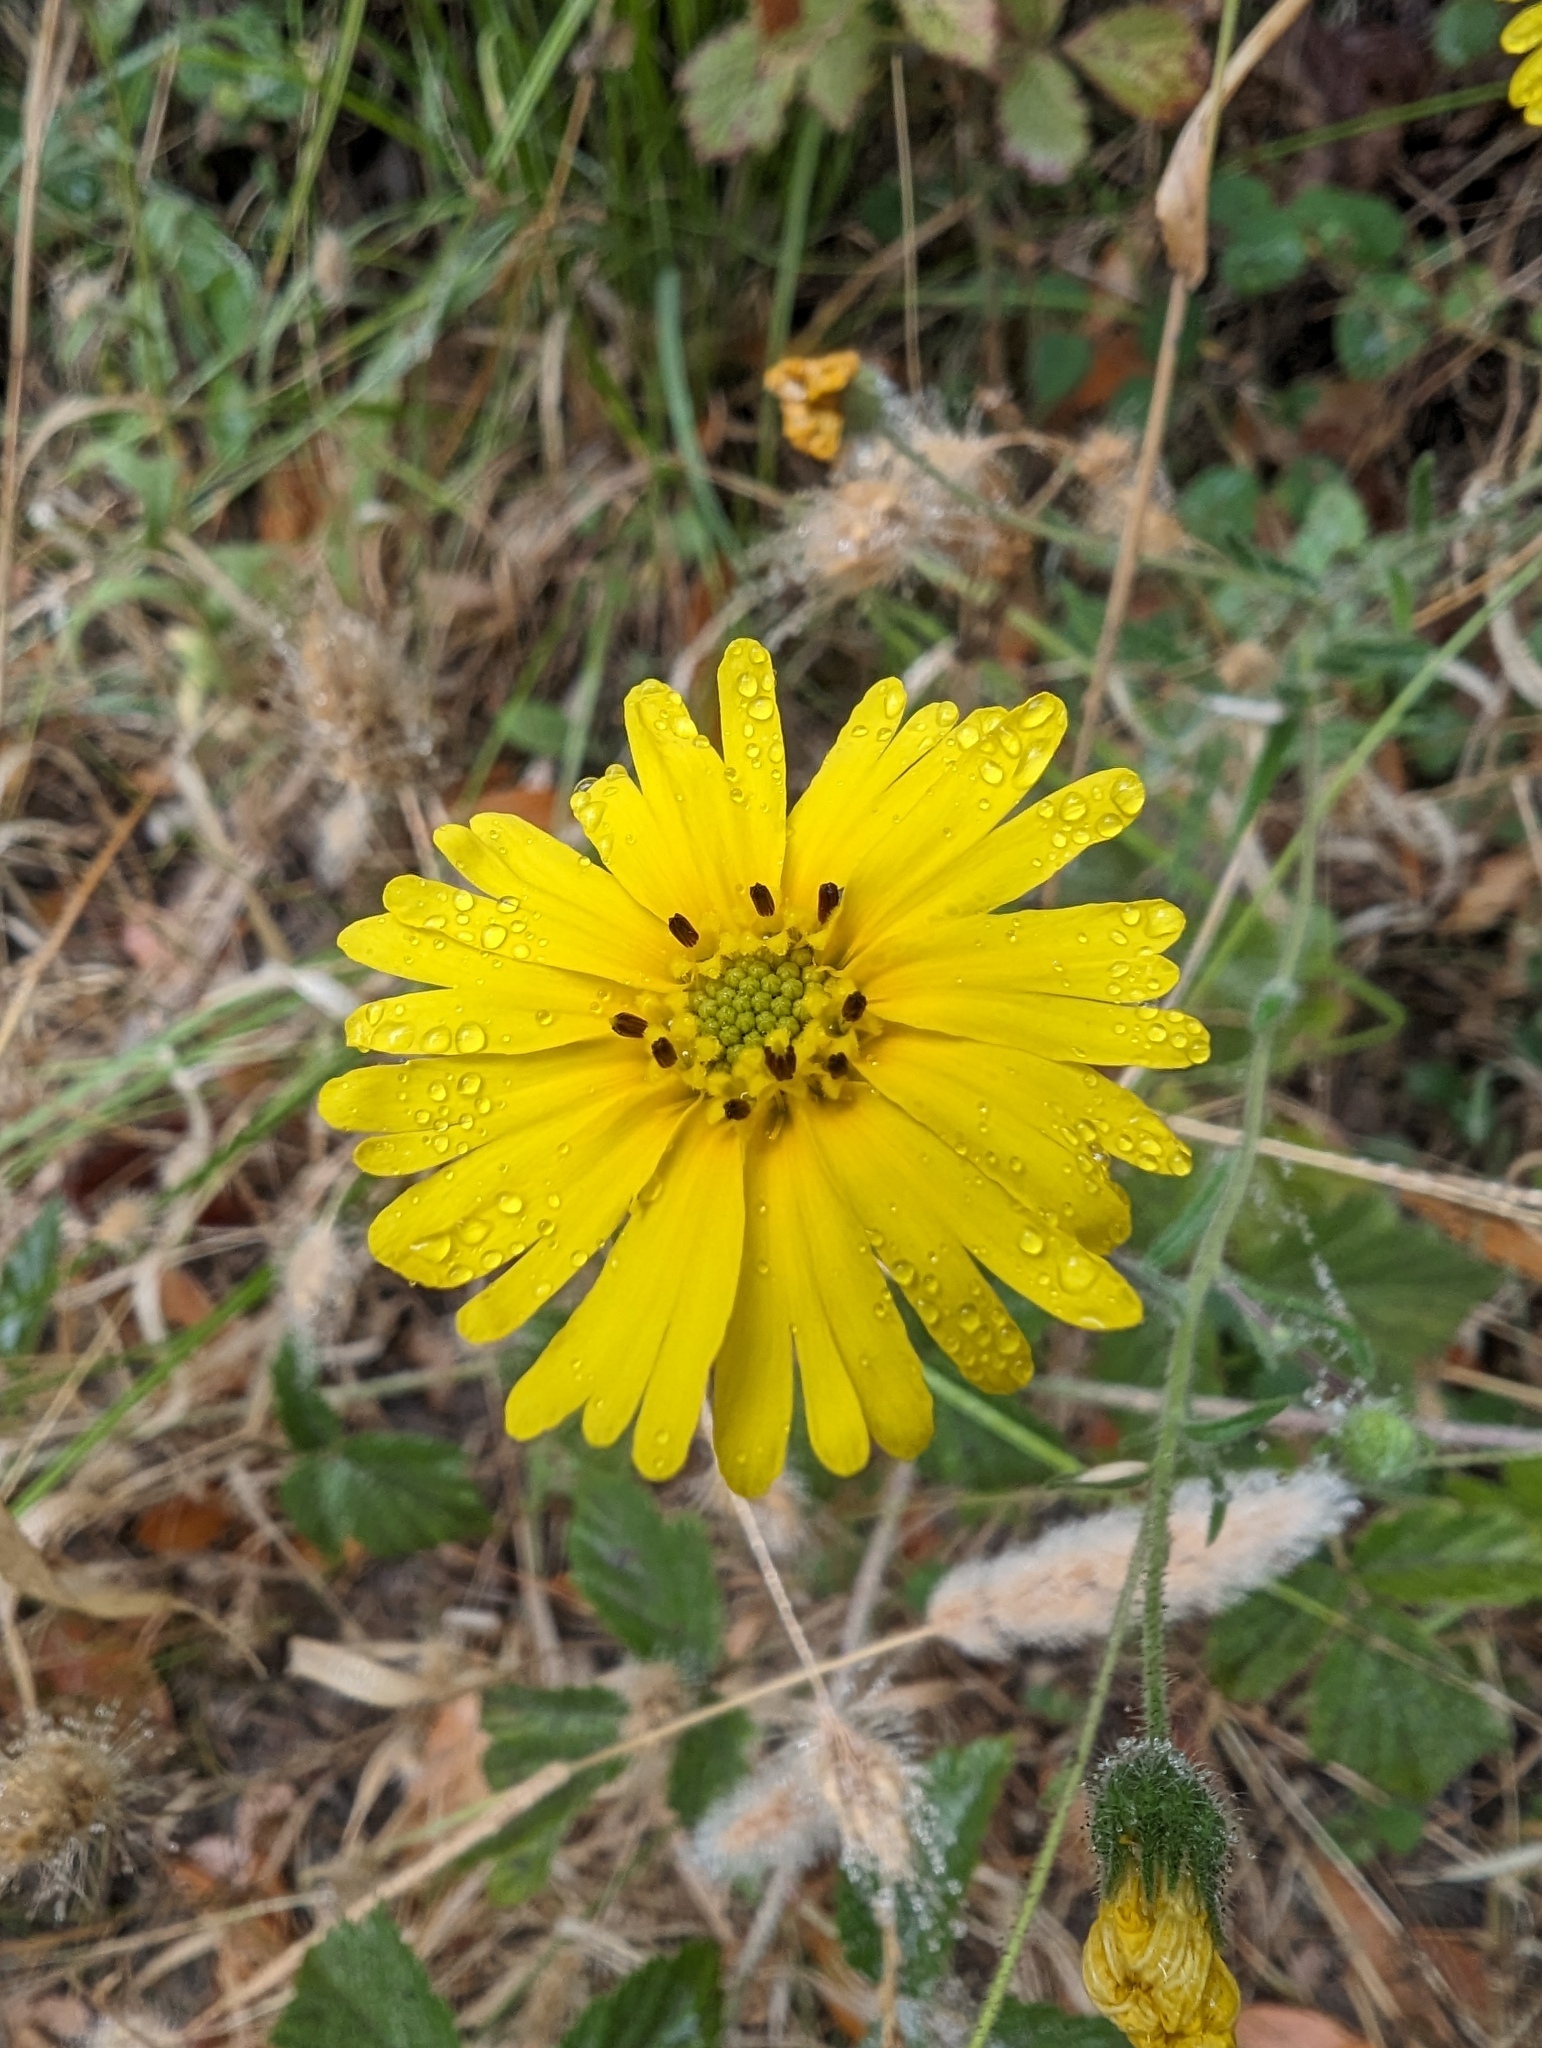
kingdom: Plantae
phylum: Tracheophyta
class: Magnoliopsida
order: Asterales
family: Asteraceae
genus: Madia
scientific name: Madia elegans
